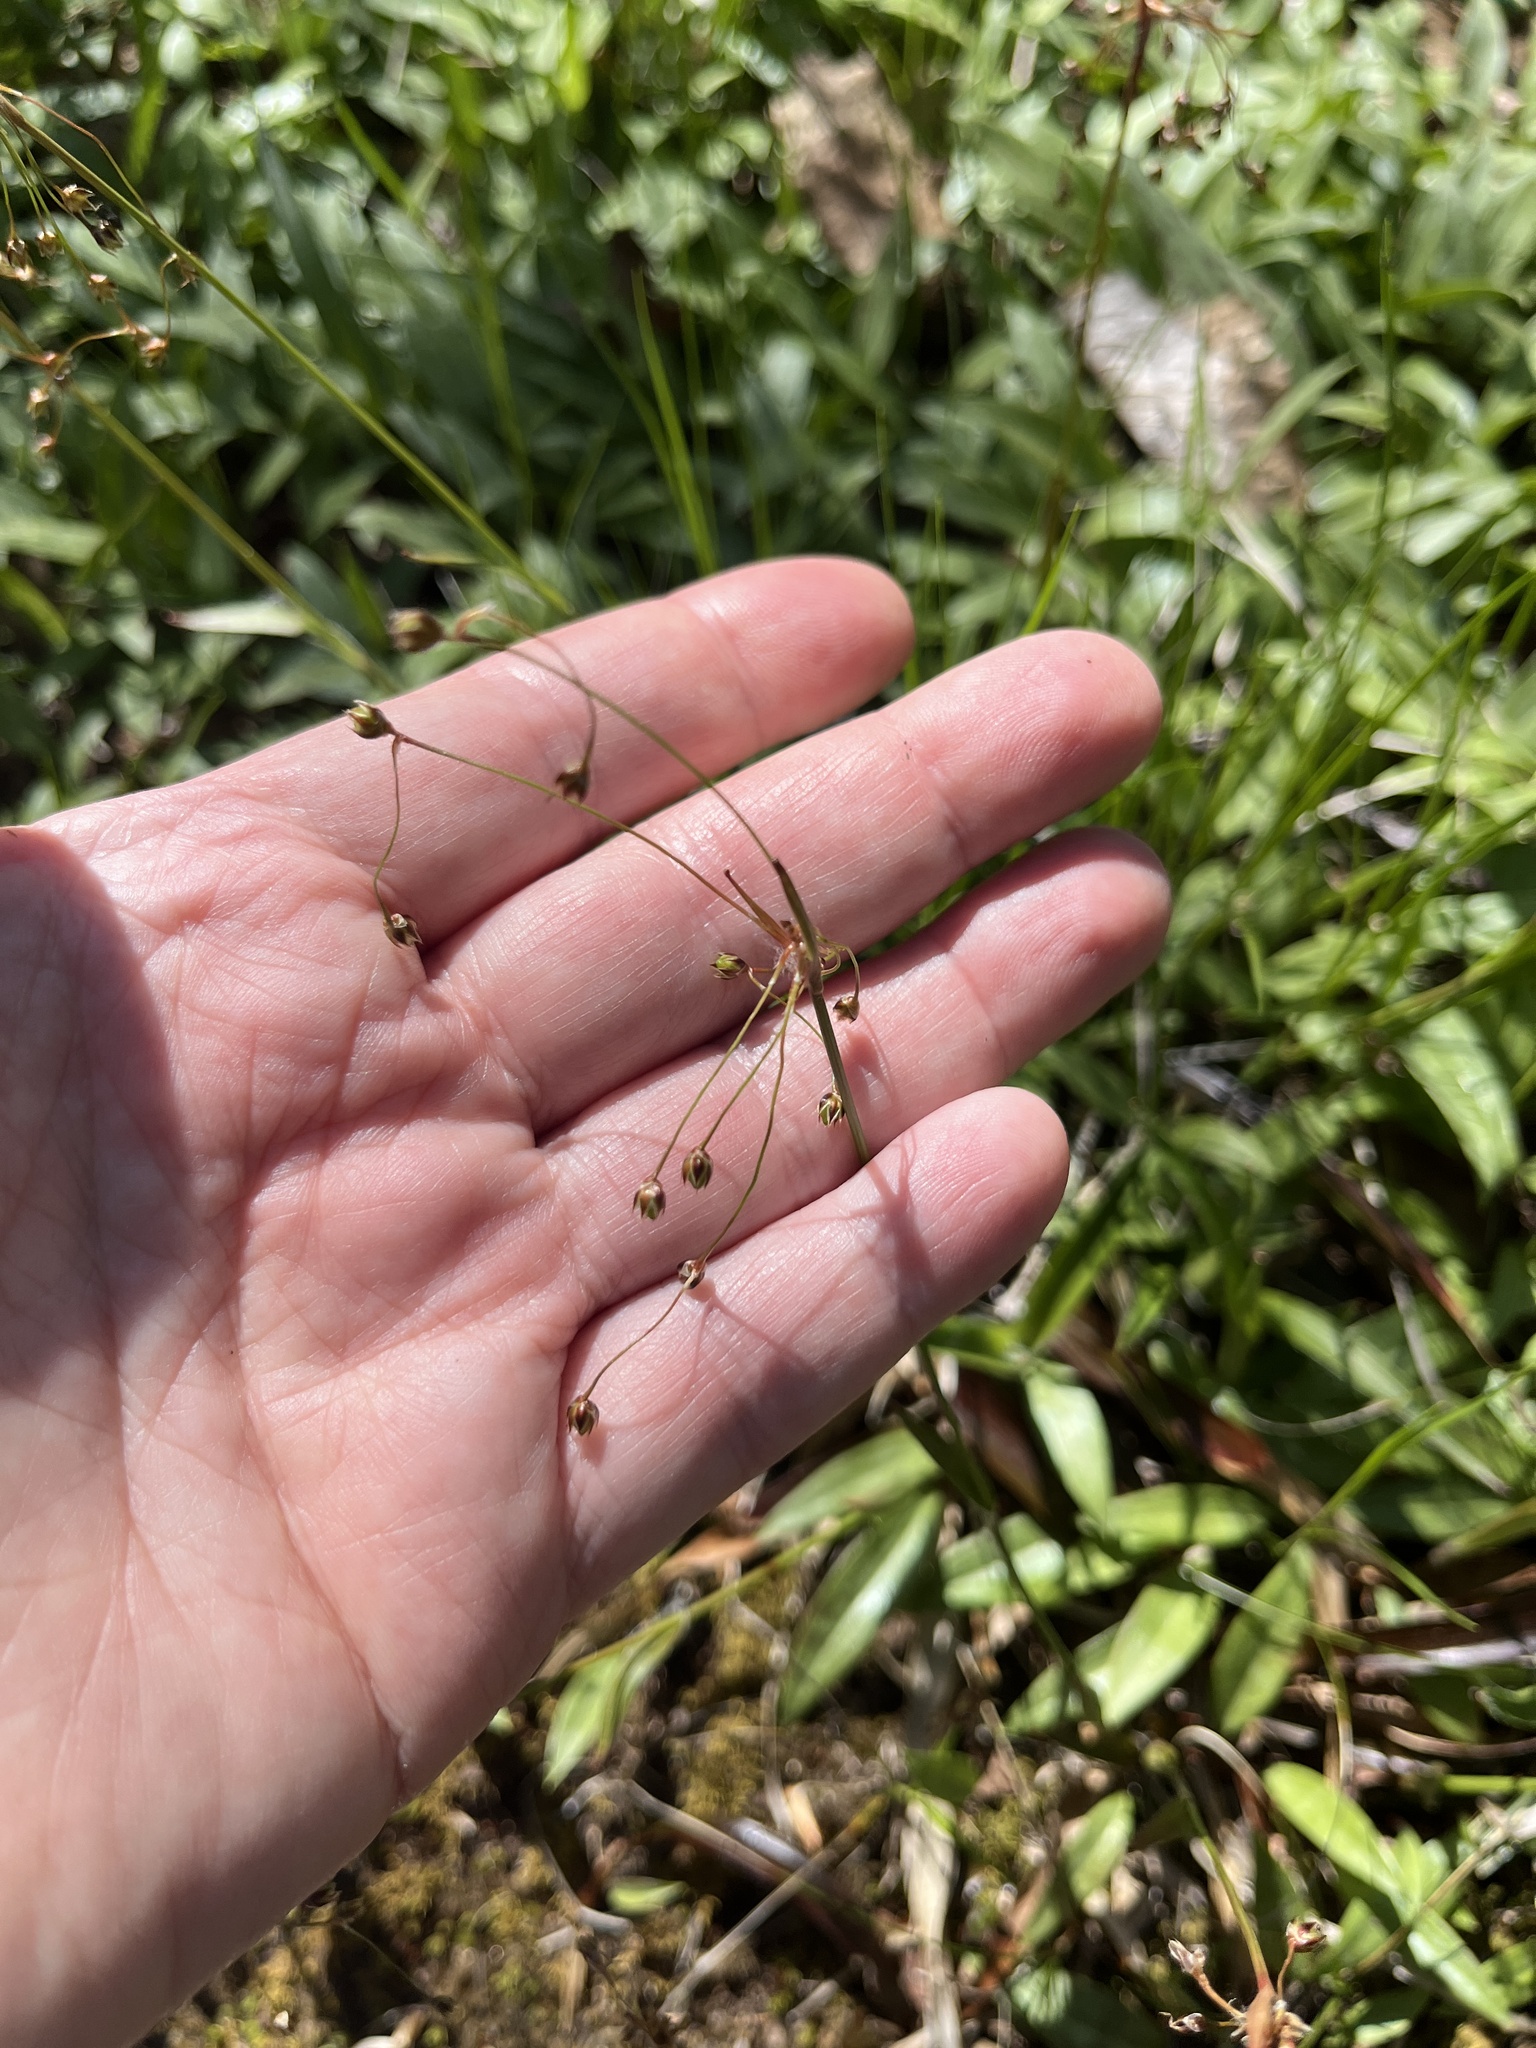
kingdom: Plantae
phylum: Tracheophyta
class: Liliopsida
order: Poales
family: Juncaceae
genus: Luzula
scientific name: Luzula acuminata
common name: Hairy woodrush
